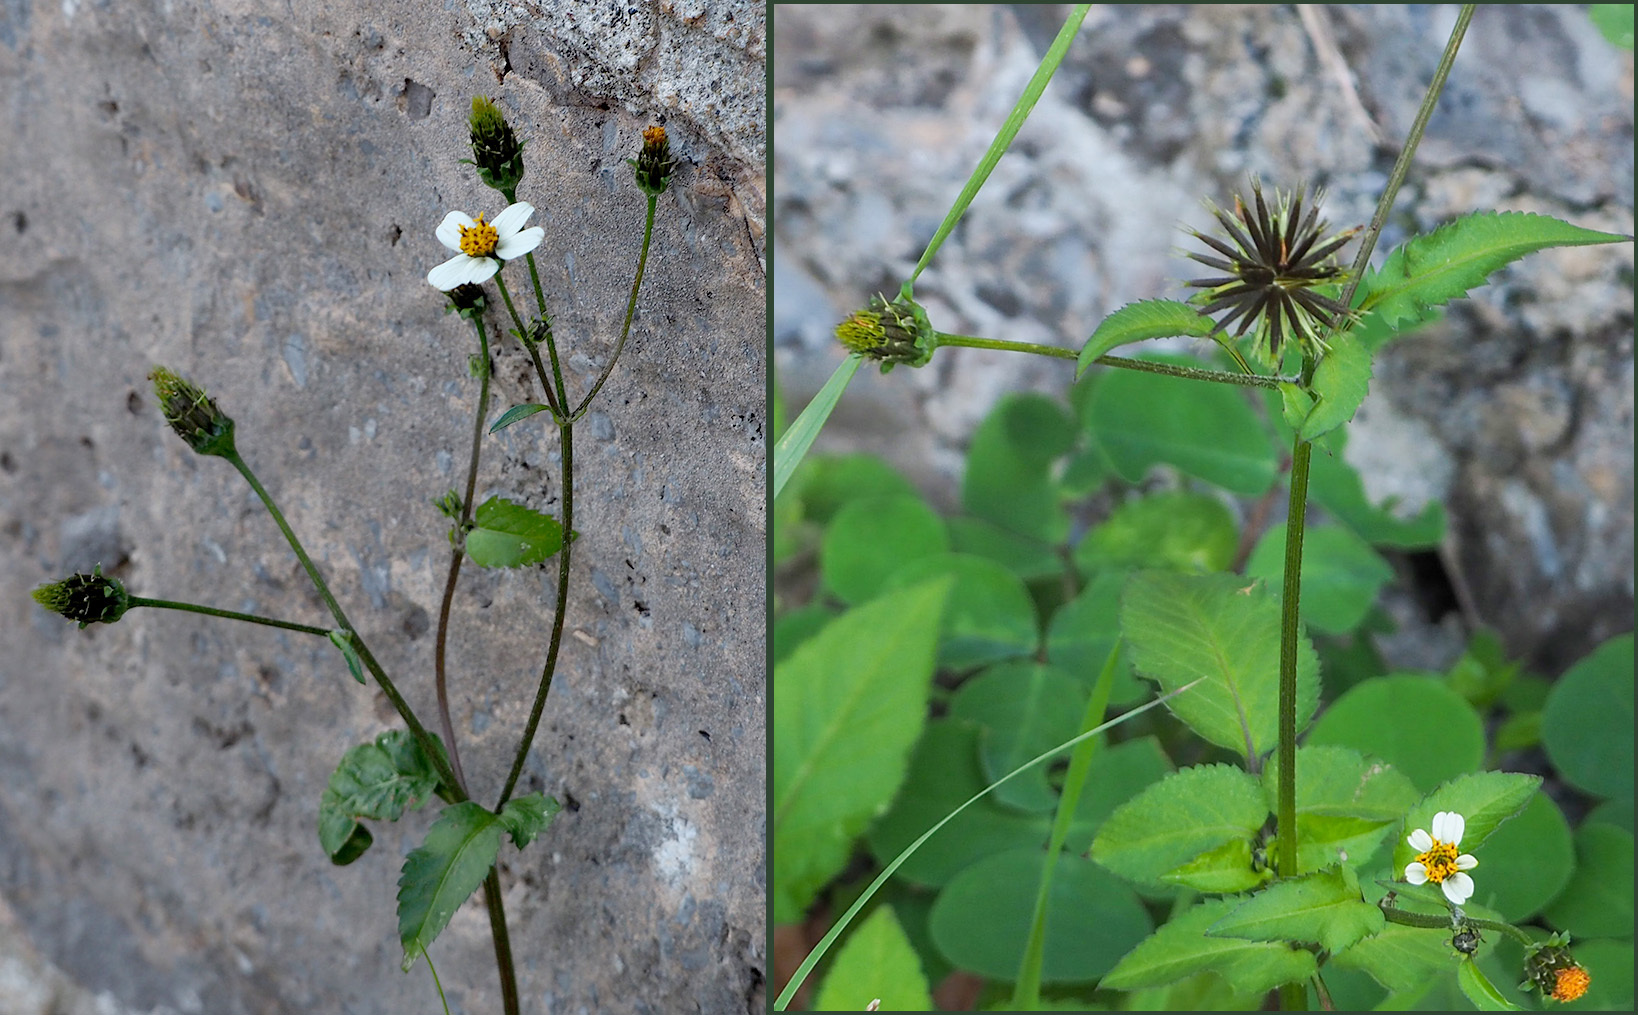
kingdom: Plantae
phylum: Tracheophyta
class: Magnoliopsida
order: Asterales
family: Asteraceae
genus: Bidens
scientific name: Bidens pilosa
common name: Black-jack
